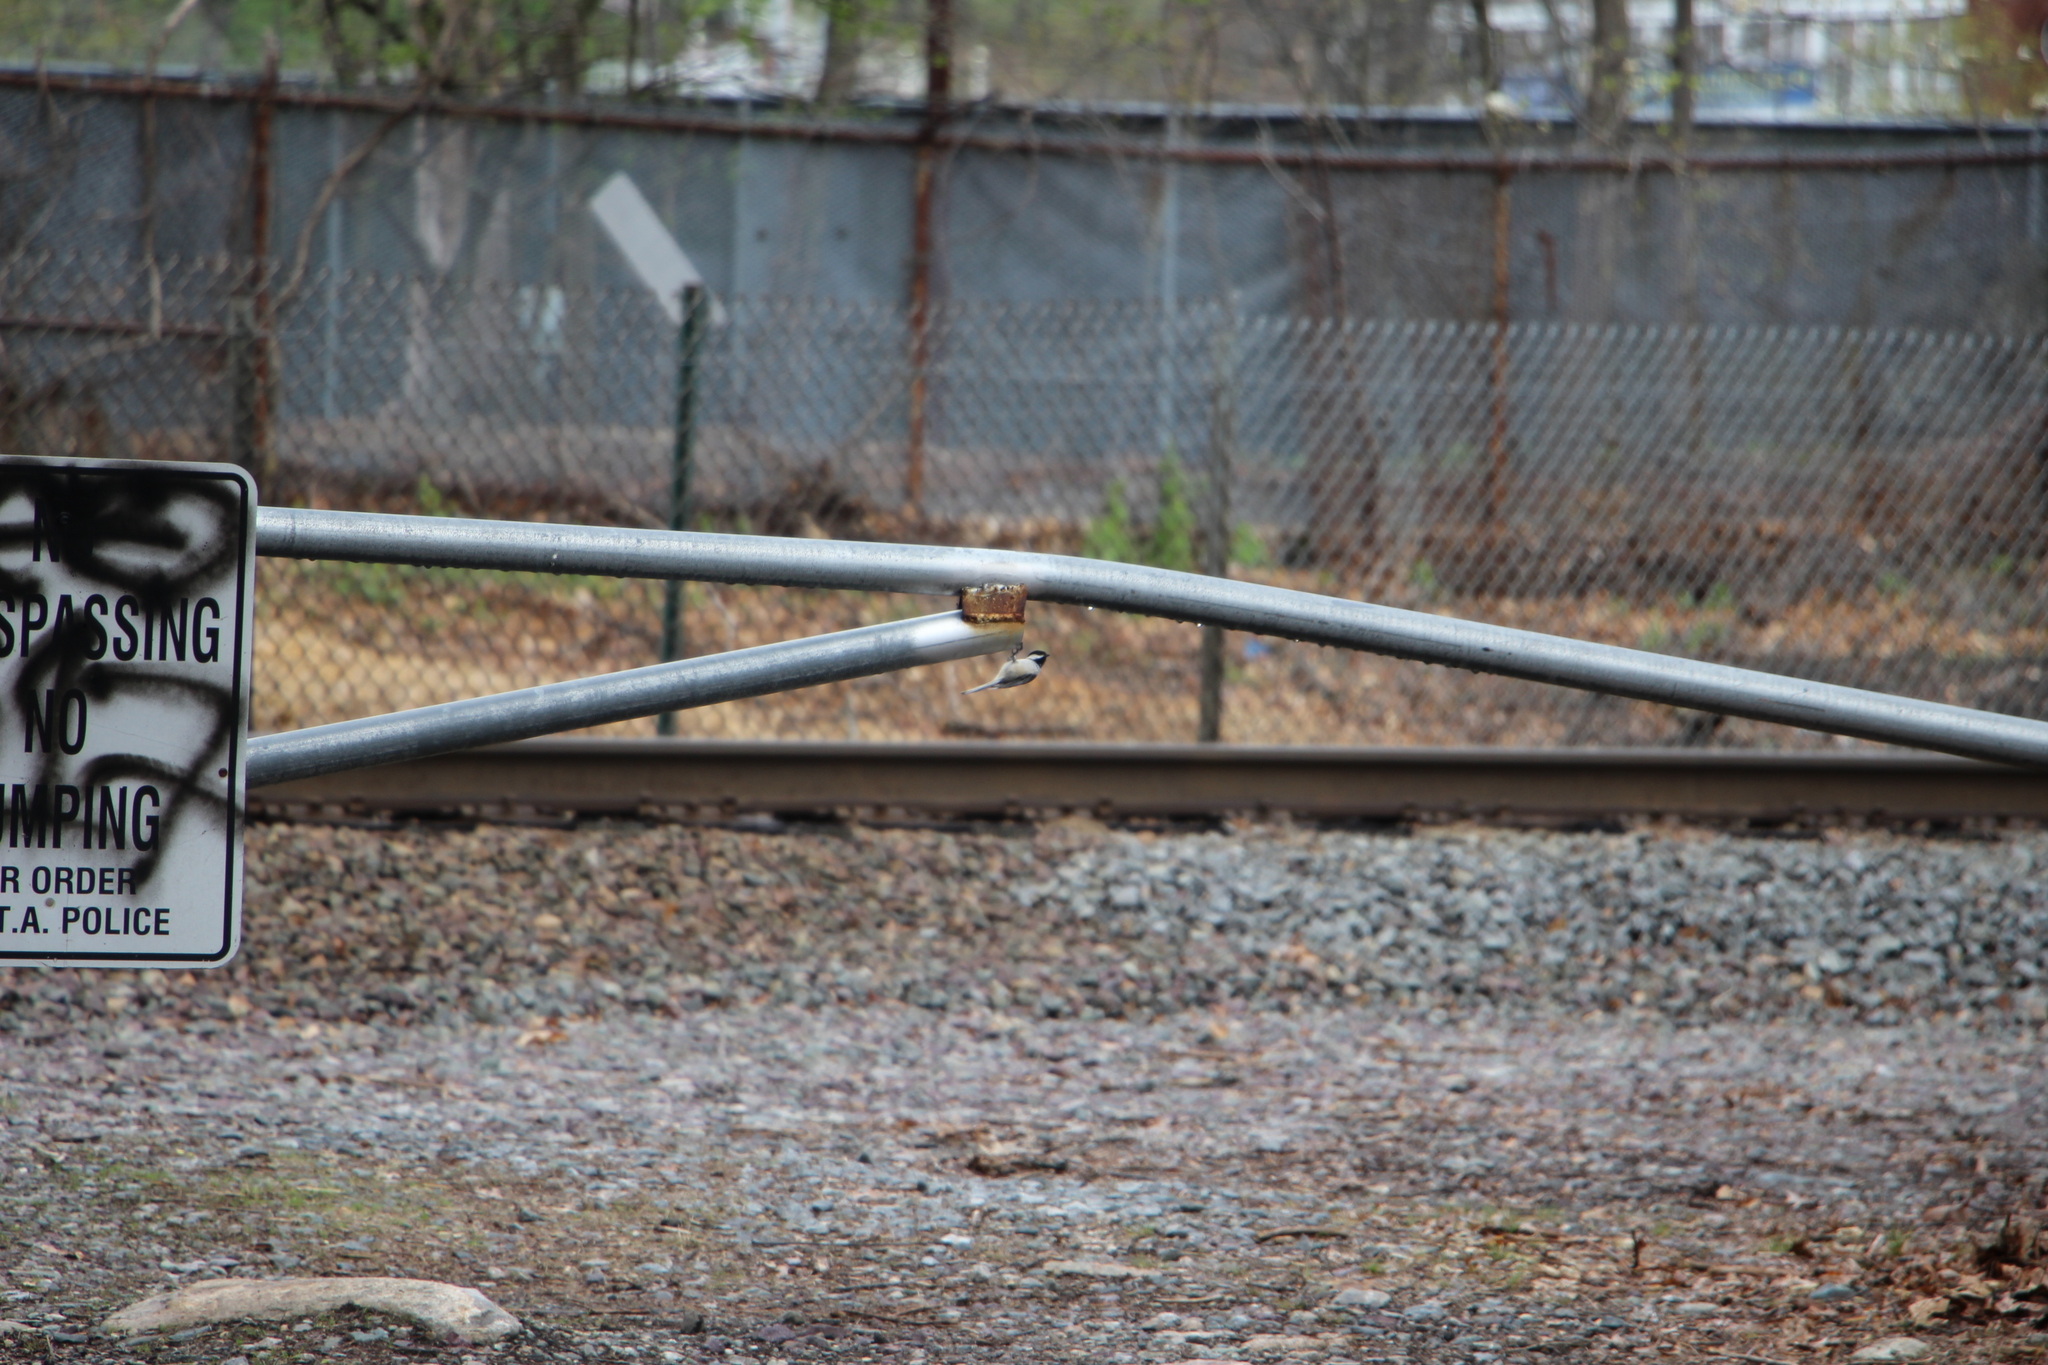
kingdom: Animalia
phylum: Chordata
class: Aves
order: Passeriformes
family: Paridae
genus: Poecile
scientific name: Poecile atricapillus
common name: Black-capped chickadee
